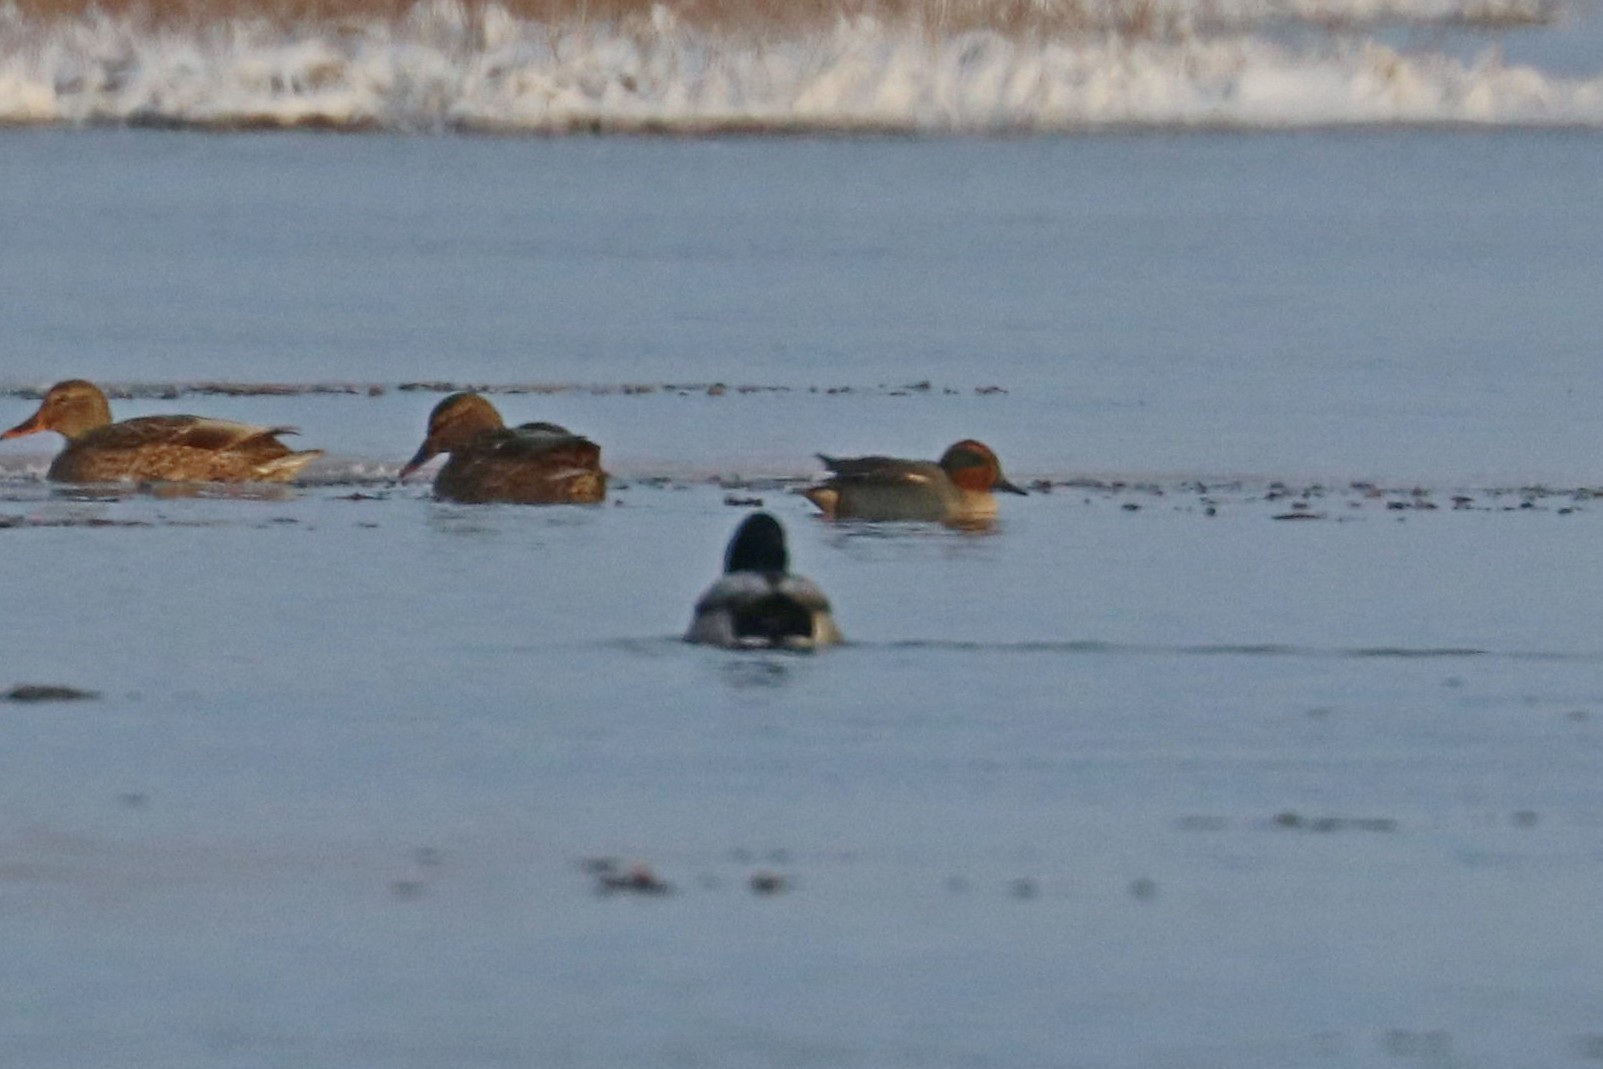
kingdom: Animalia
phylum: Chordata
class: Aves
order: Anseriformes
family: Anatidae
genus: Anas
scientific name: Anas crecca
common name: Eurasian teal
